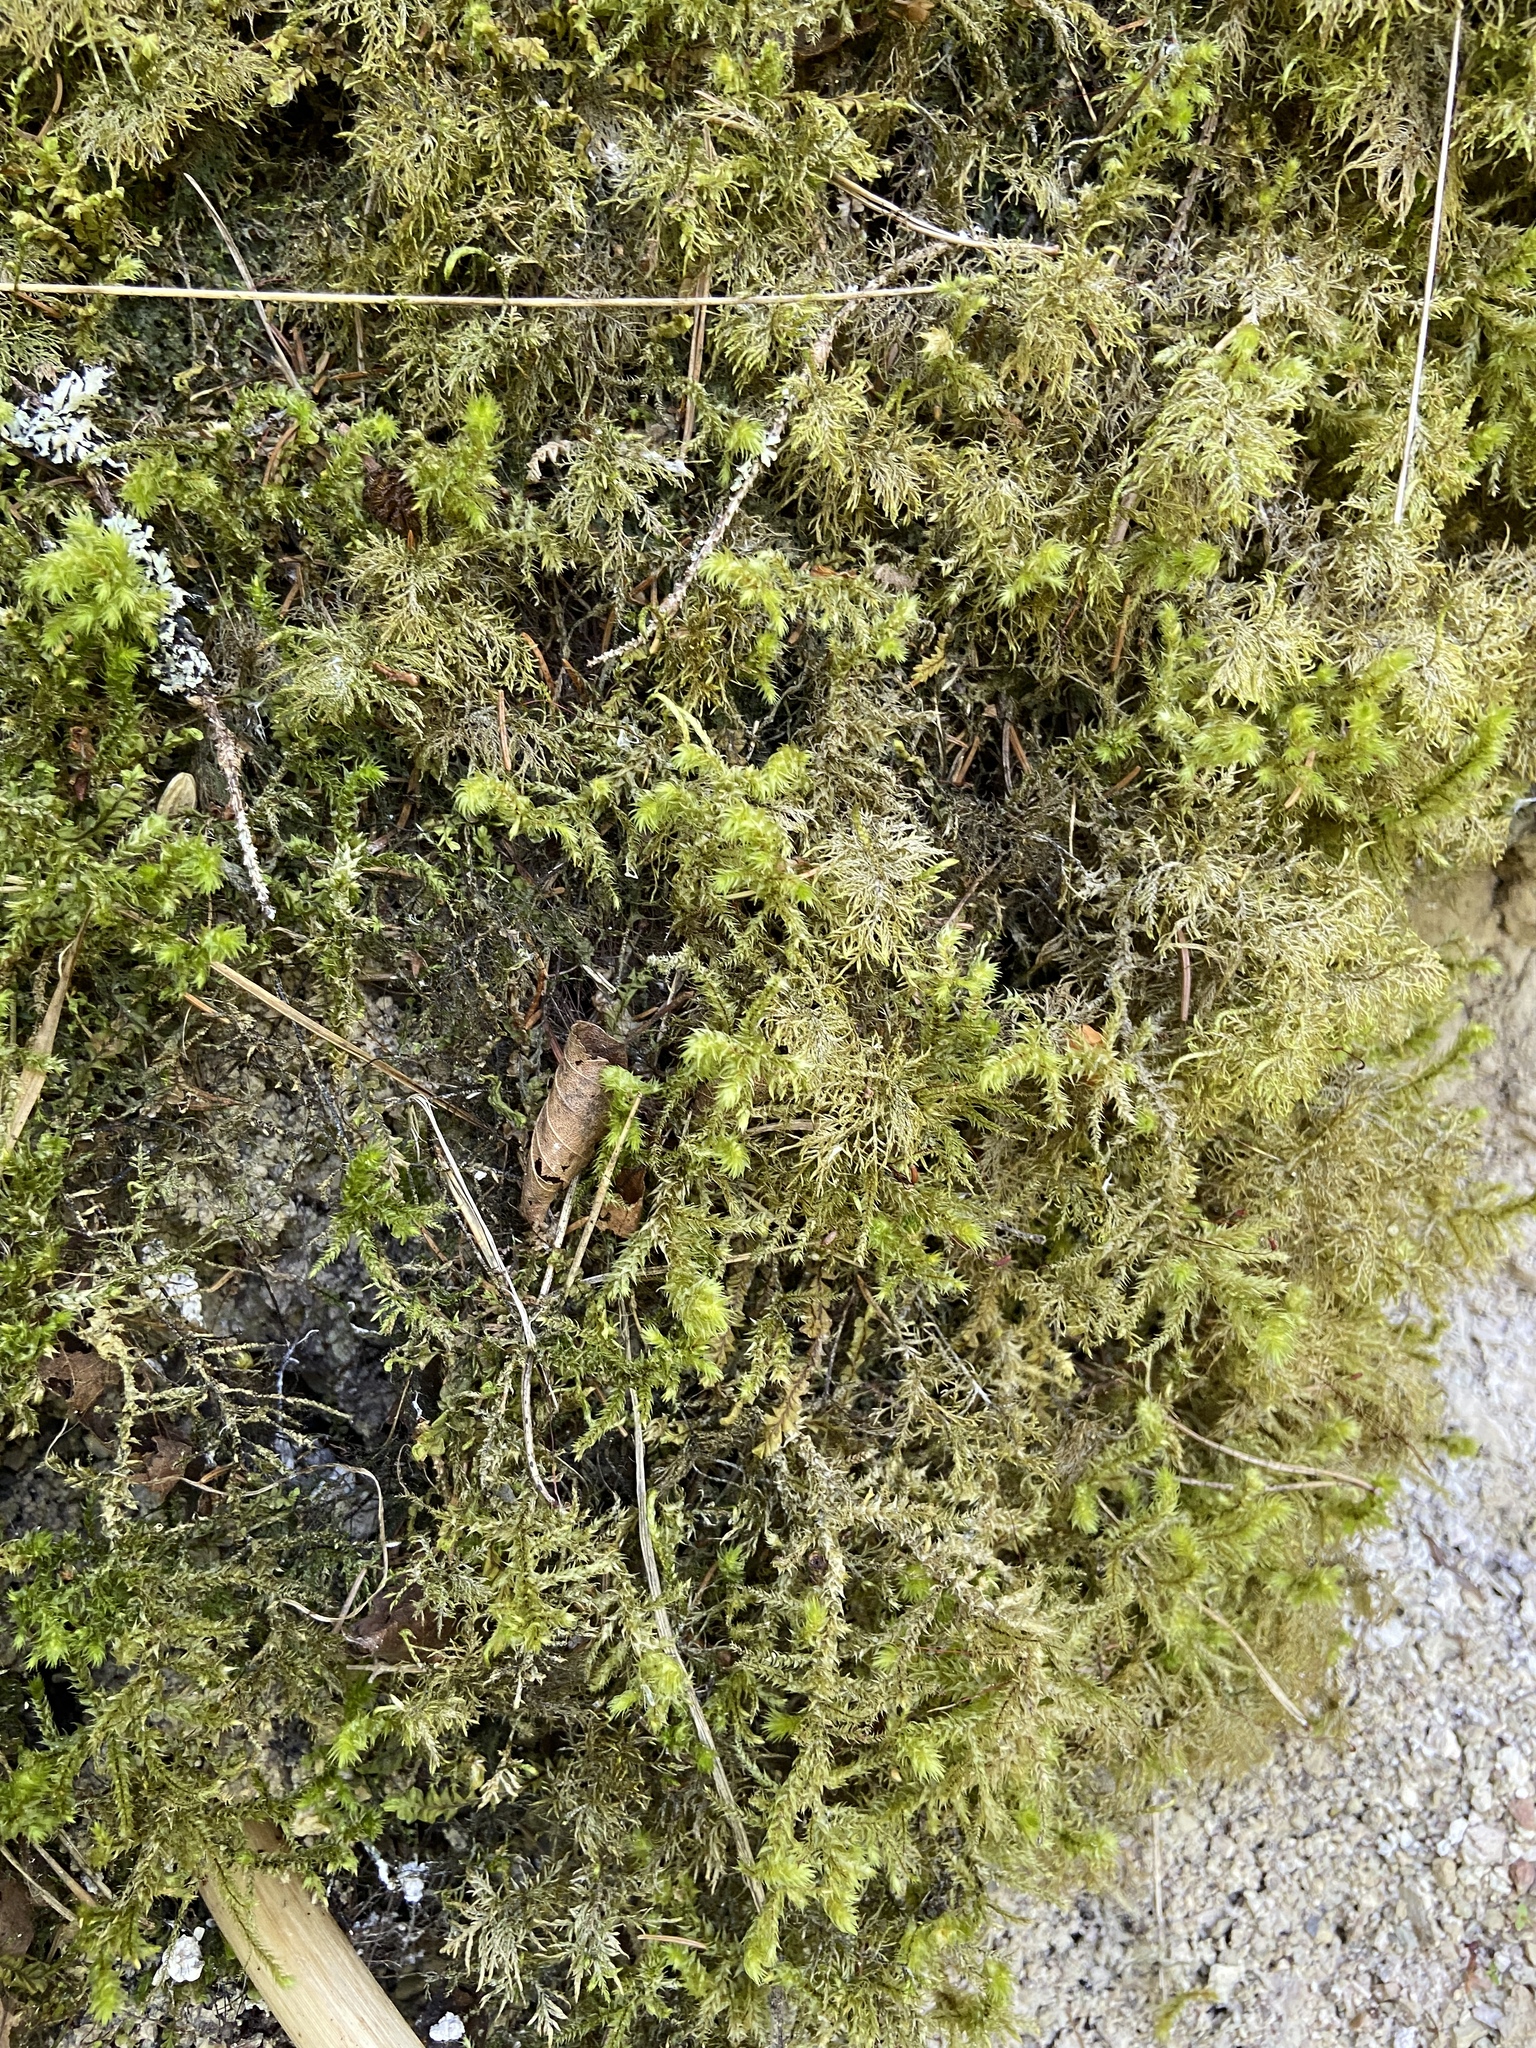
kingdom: Plantae
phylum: Bryophyta
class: Bryopsida
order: Hypnales
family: Hylocomiaceae
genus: Hylocomiadelphus
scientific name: Hylocomiadelphus triquetrus
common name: Rough goose neck moss
